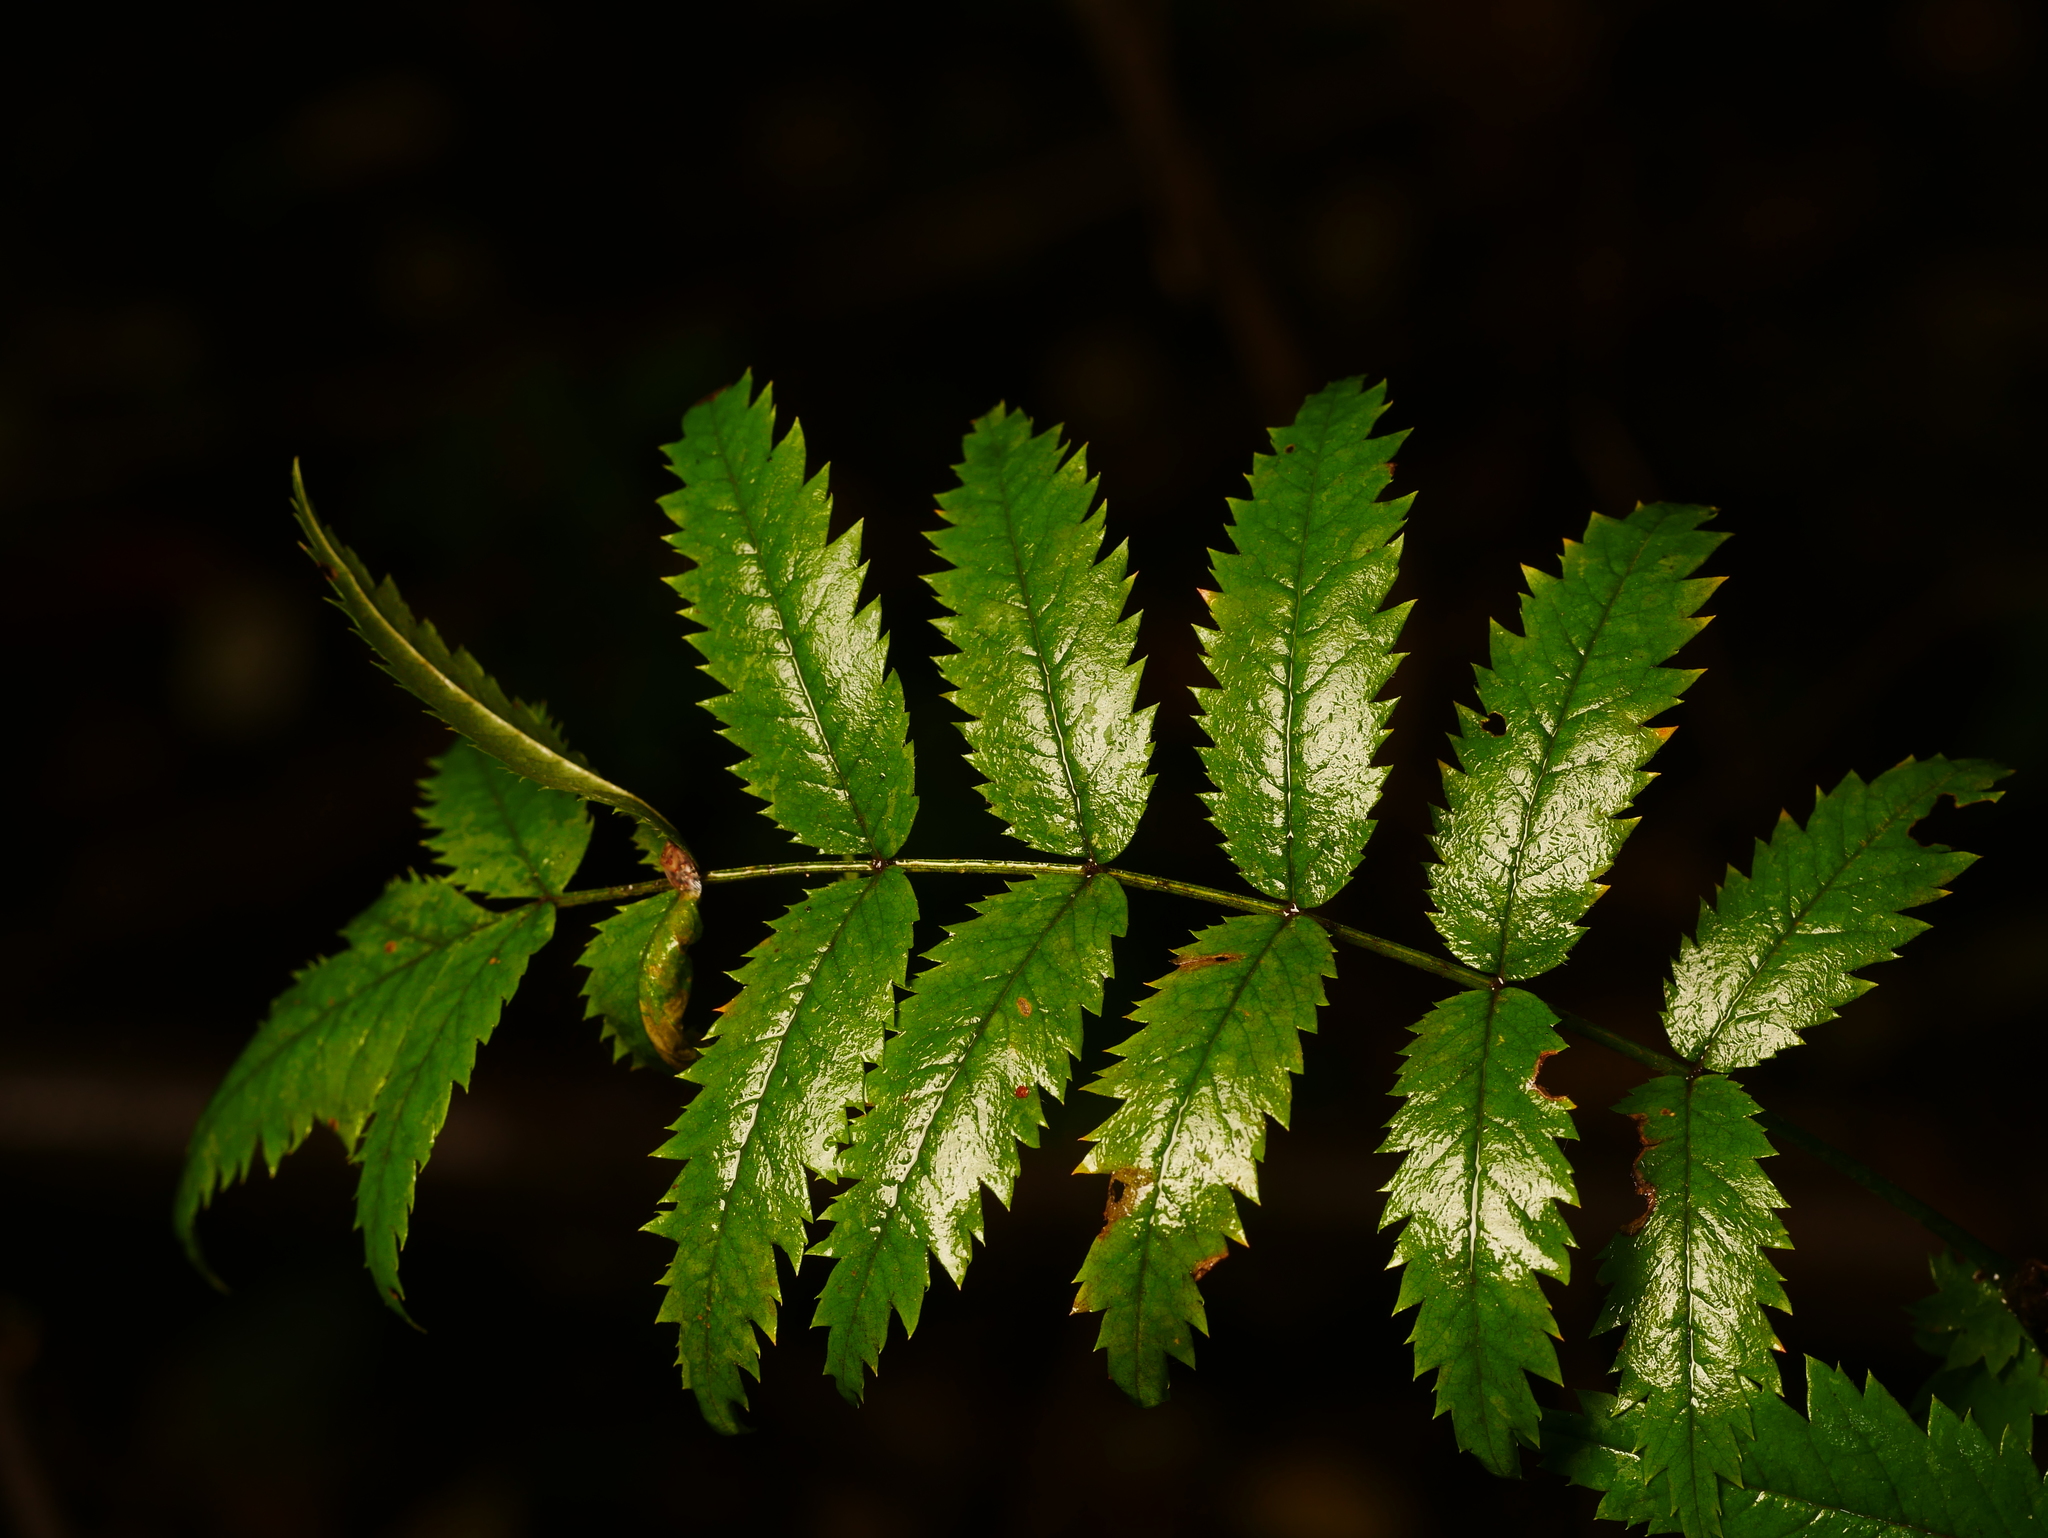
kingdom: Plantae
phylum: Tracheophyta
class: Magnoliopsida
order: Rosales
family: Rosaceae
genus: Sorbus
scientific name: Sorbus aucuparia
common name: Rowan
